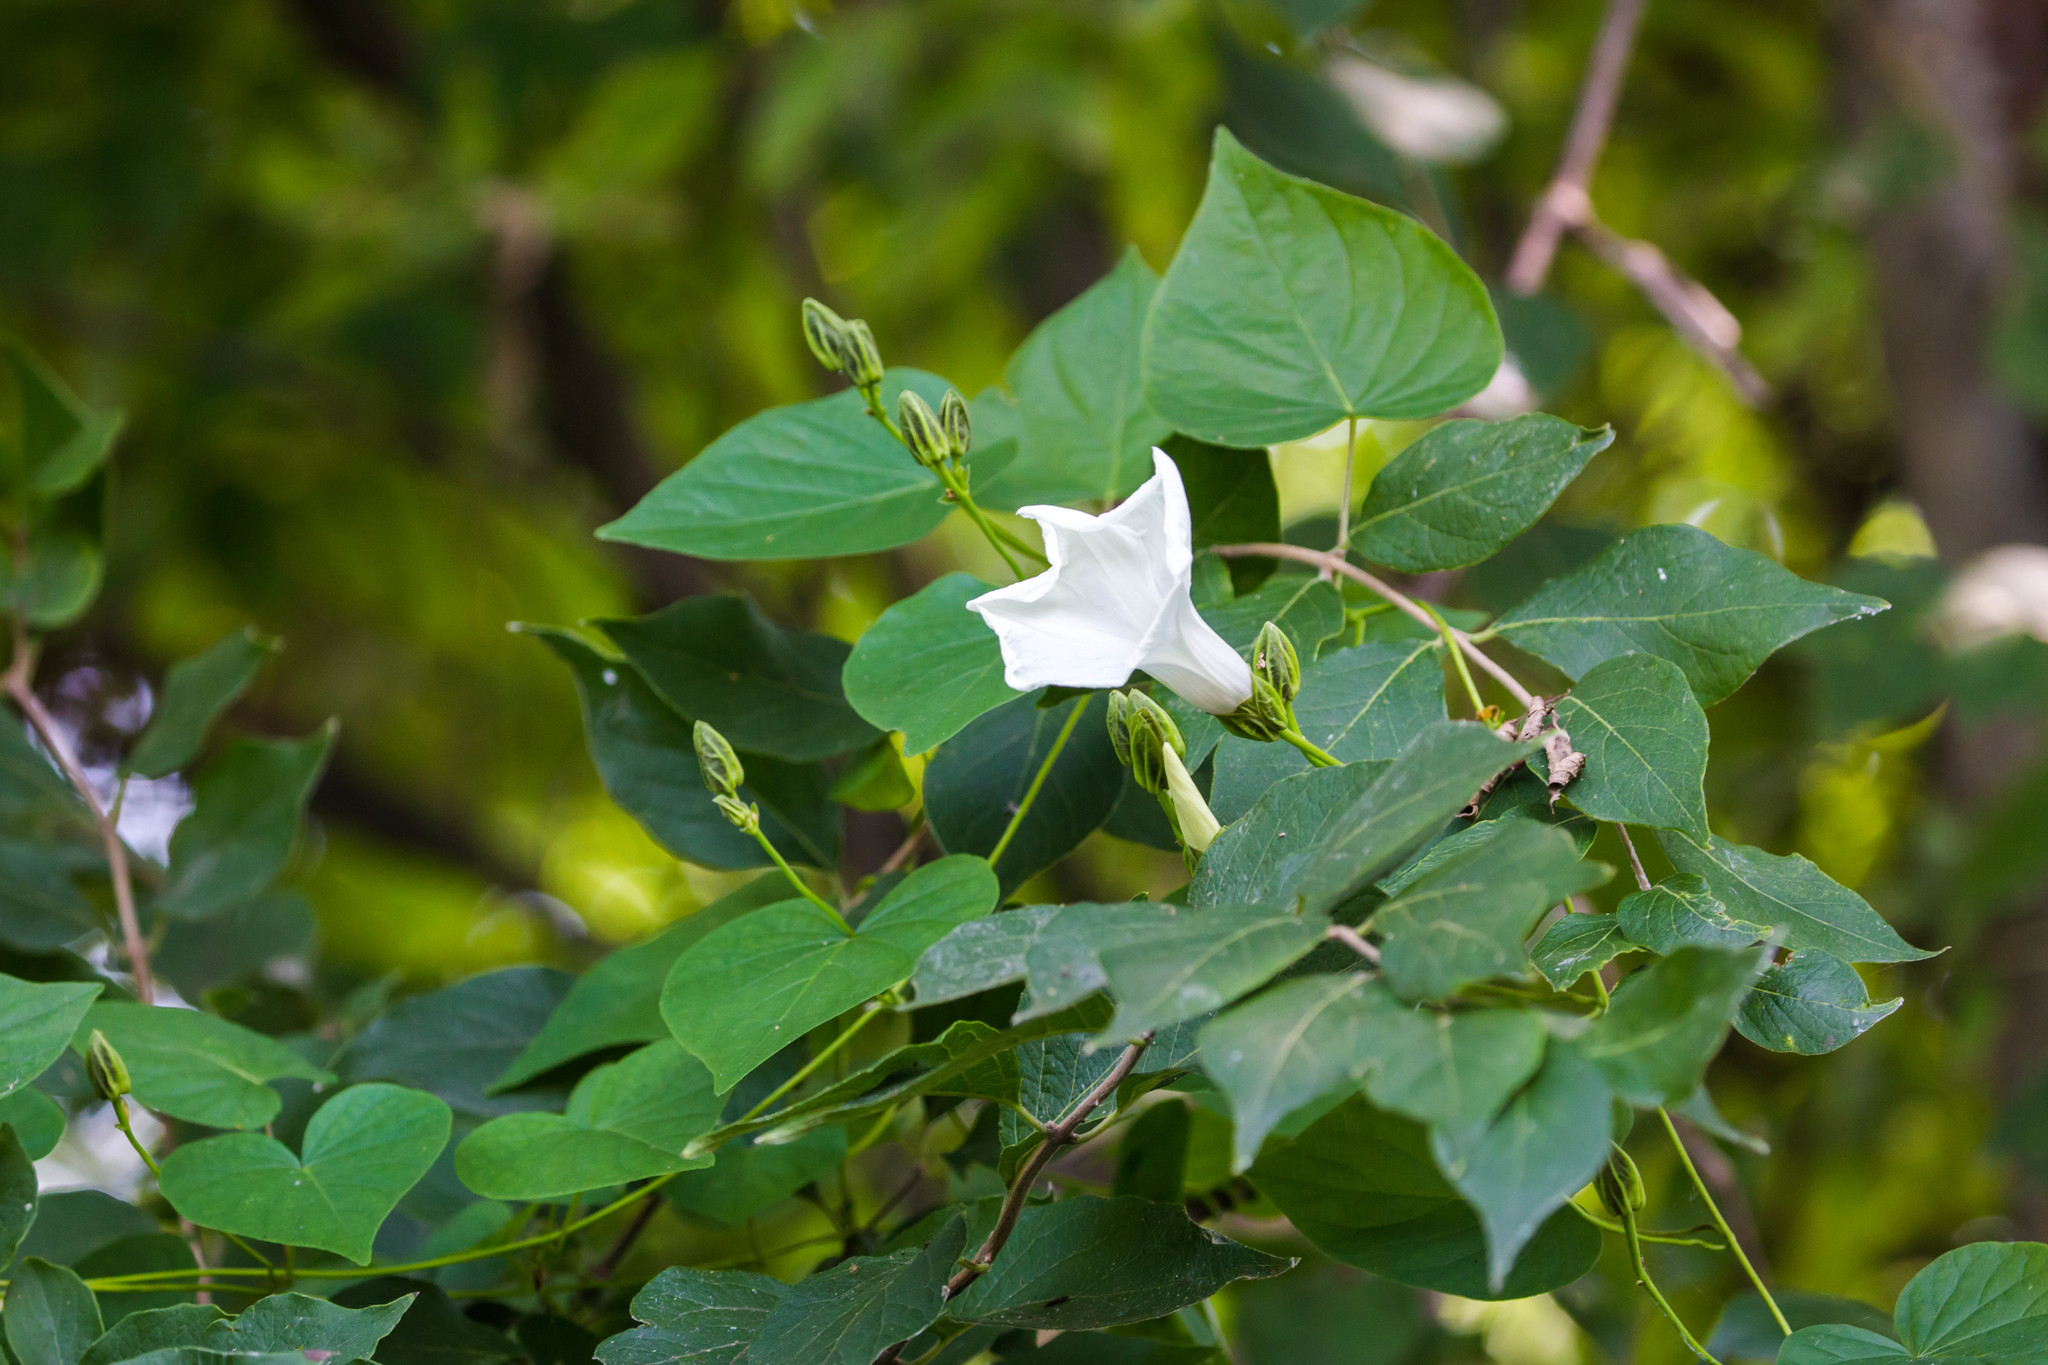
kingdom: Plantae
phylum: Tracheophyta
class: Magnoliopsida
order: Solanales
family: Convolvulaceae
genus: Ipomoea
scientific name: Ipomoea pandurata
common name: Man-of-the-earth
